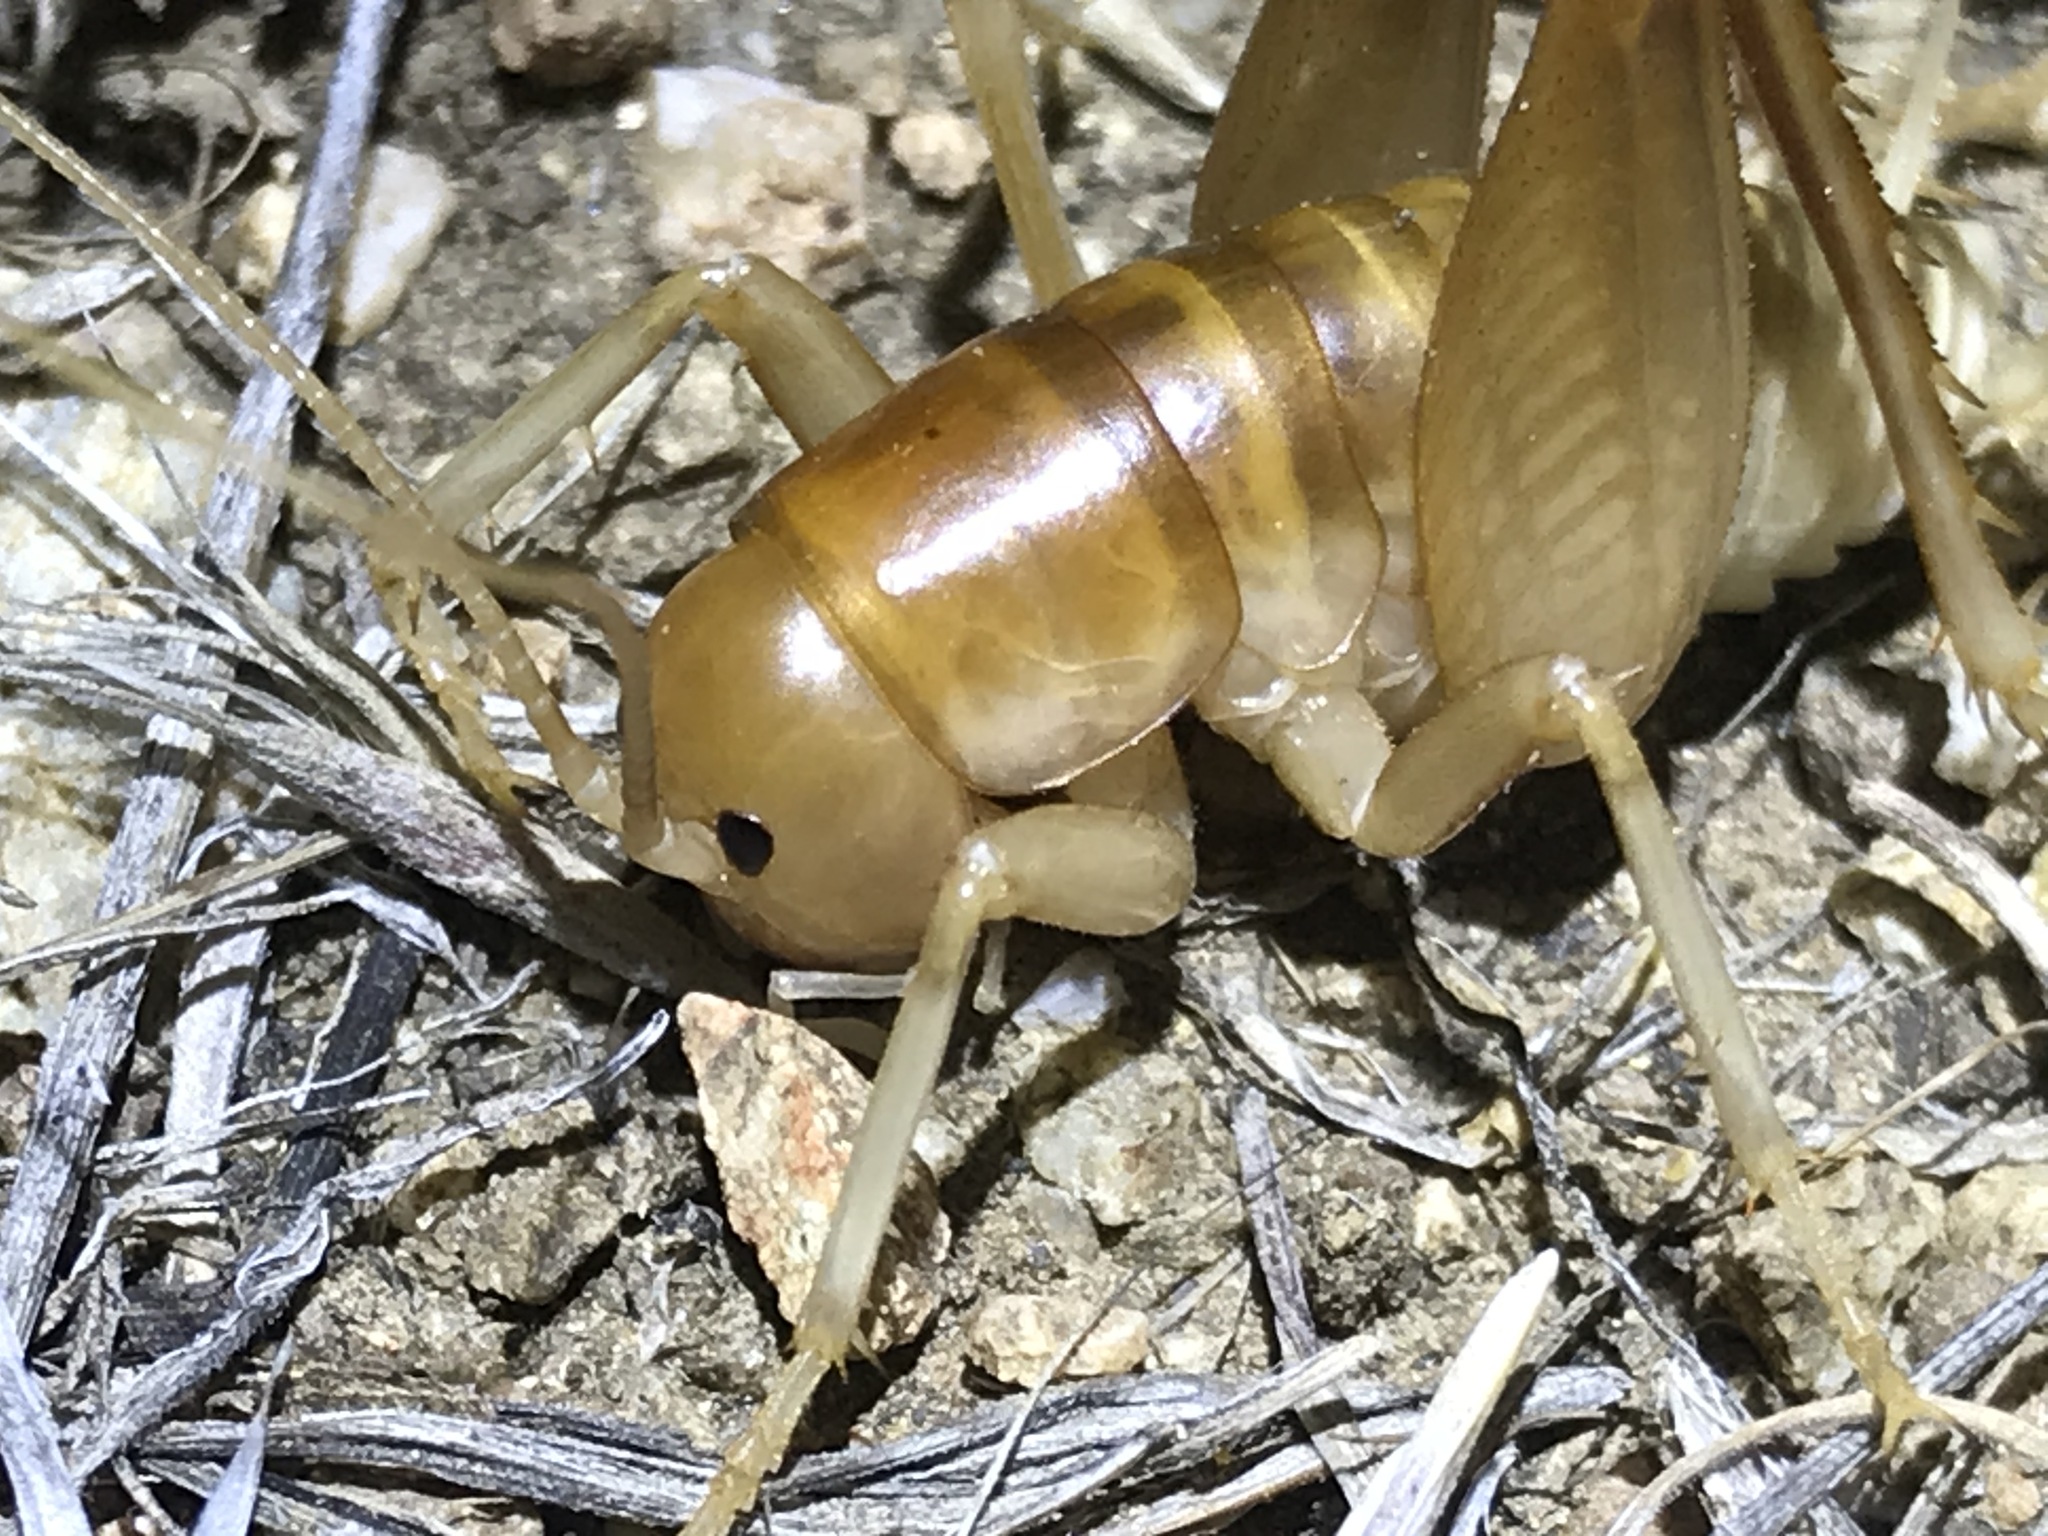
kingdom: Animalia
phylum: Arthropoda
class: Insecta
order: Orthoptera
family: Rhaphidophoridae
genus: Ceuthophilus
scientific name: Ceuthophilus californianus
